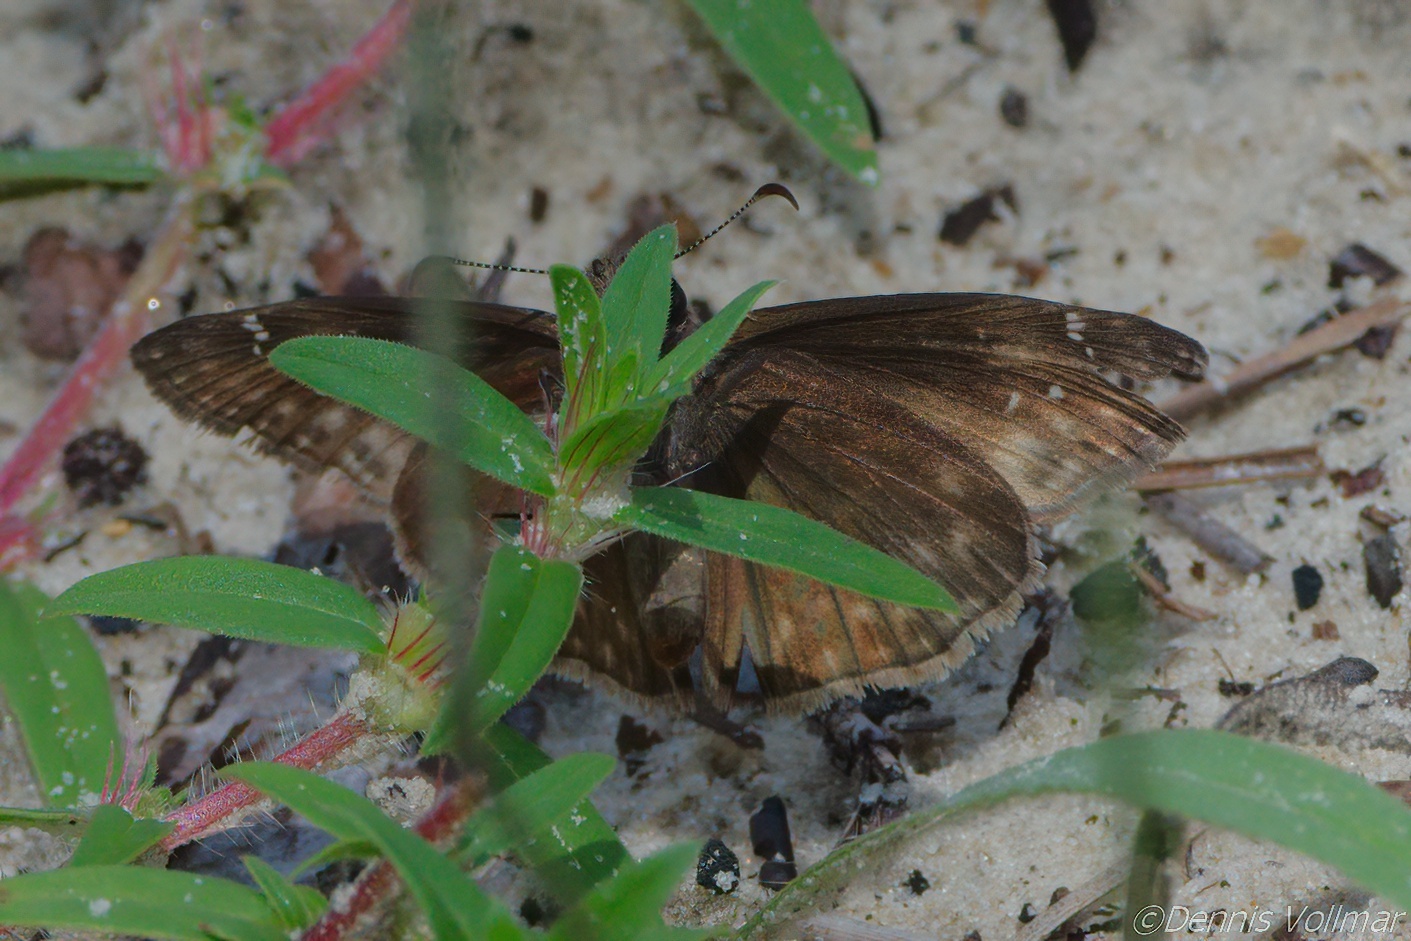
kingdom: Animalia
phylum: Arthropoda
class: Insecta
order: Lepidoptera
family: Hesperiidae
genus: Erynnis
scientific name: Erynnis zarucco
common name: Zarucco duskywing
